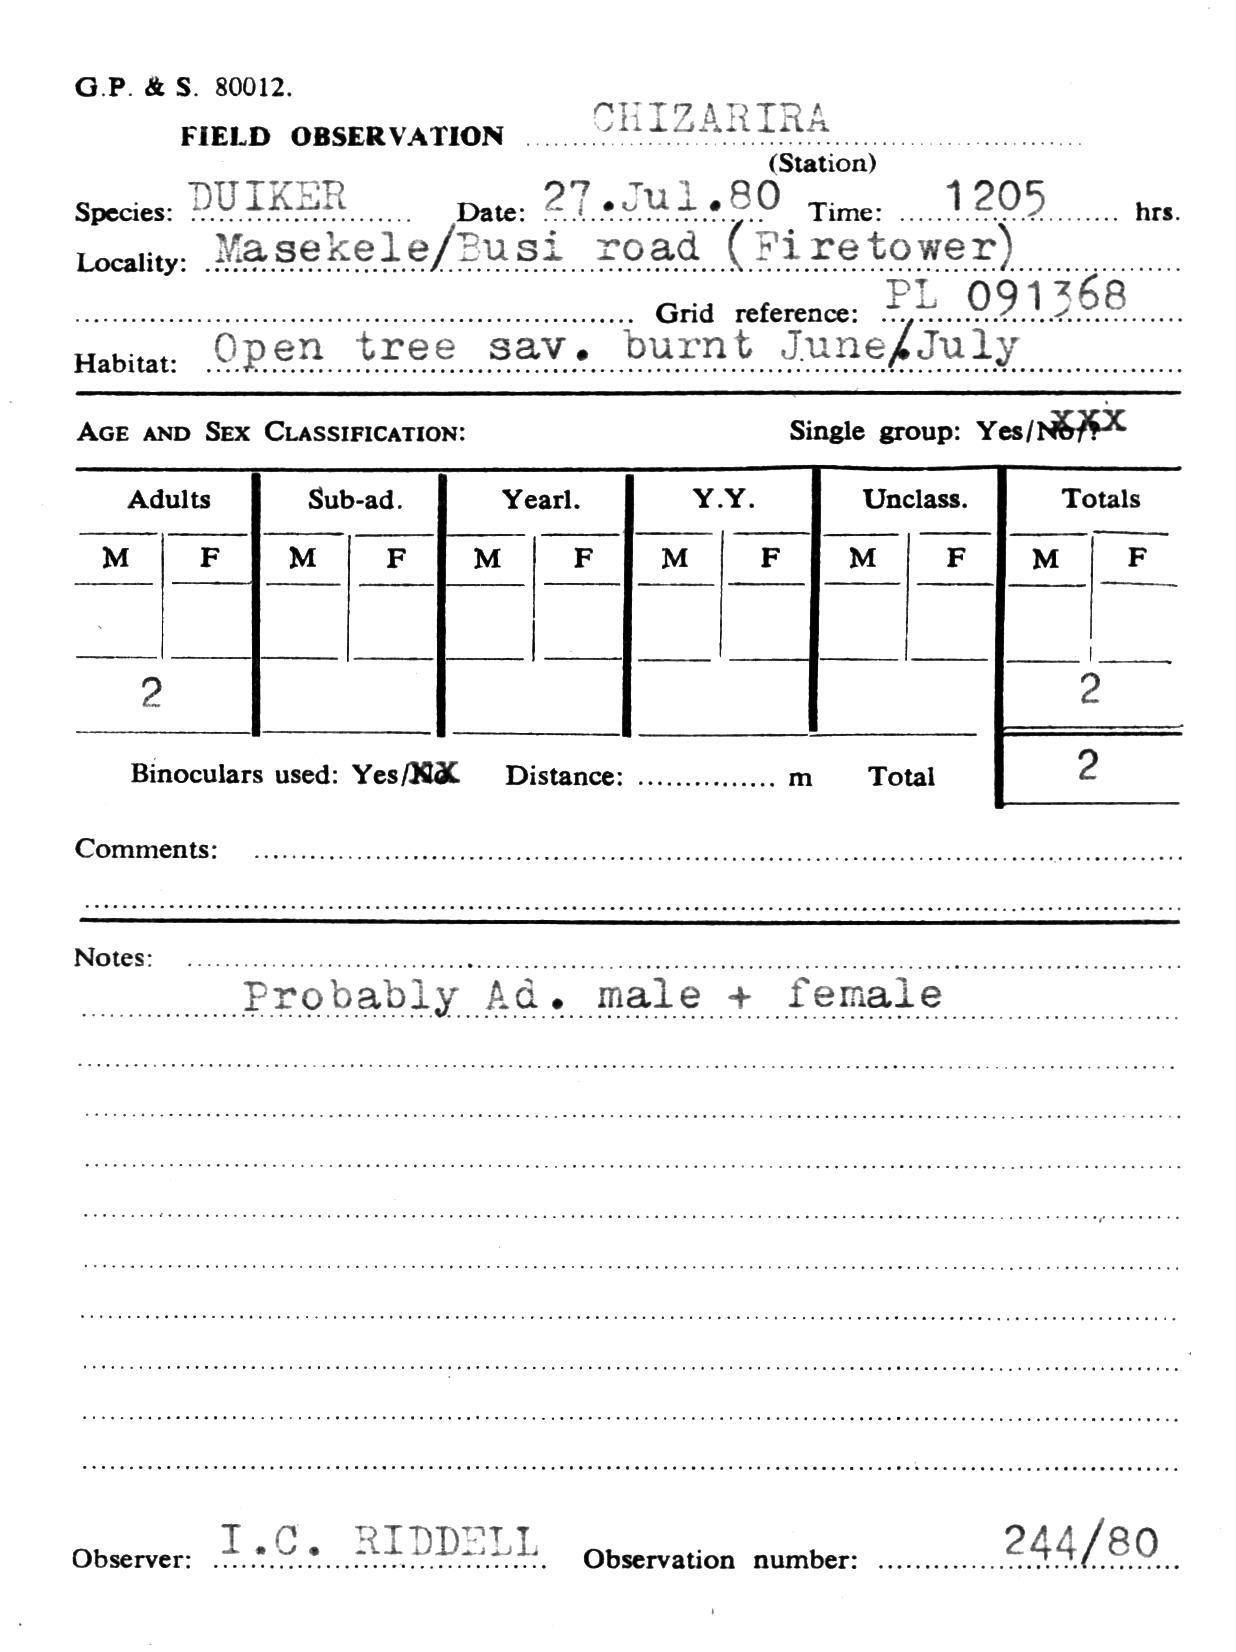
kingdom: Animalia
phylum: Chordata
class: Mammalia
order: Artiodactyla
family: Bovidae
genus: Sylvicapra
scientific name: Sylvicapra grimmia
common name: Bush duiker
